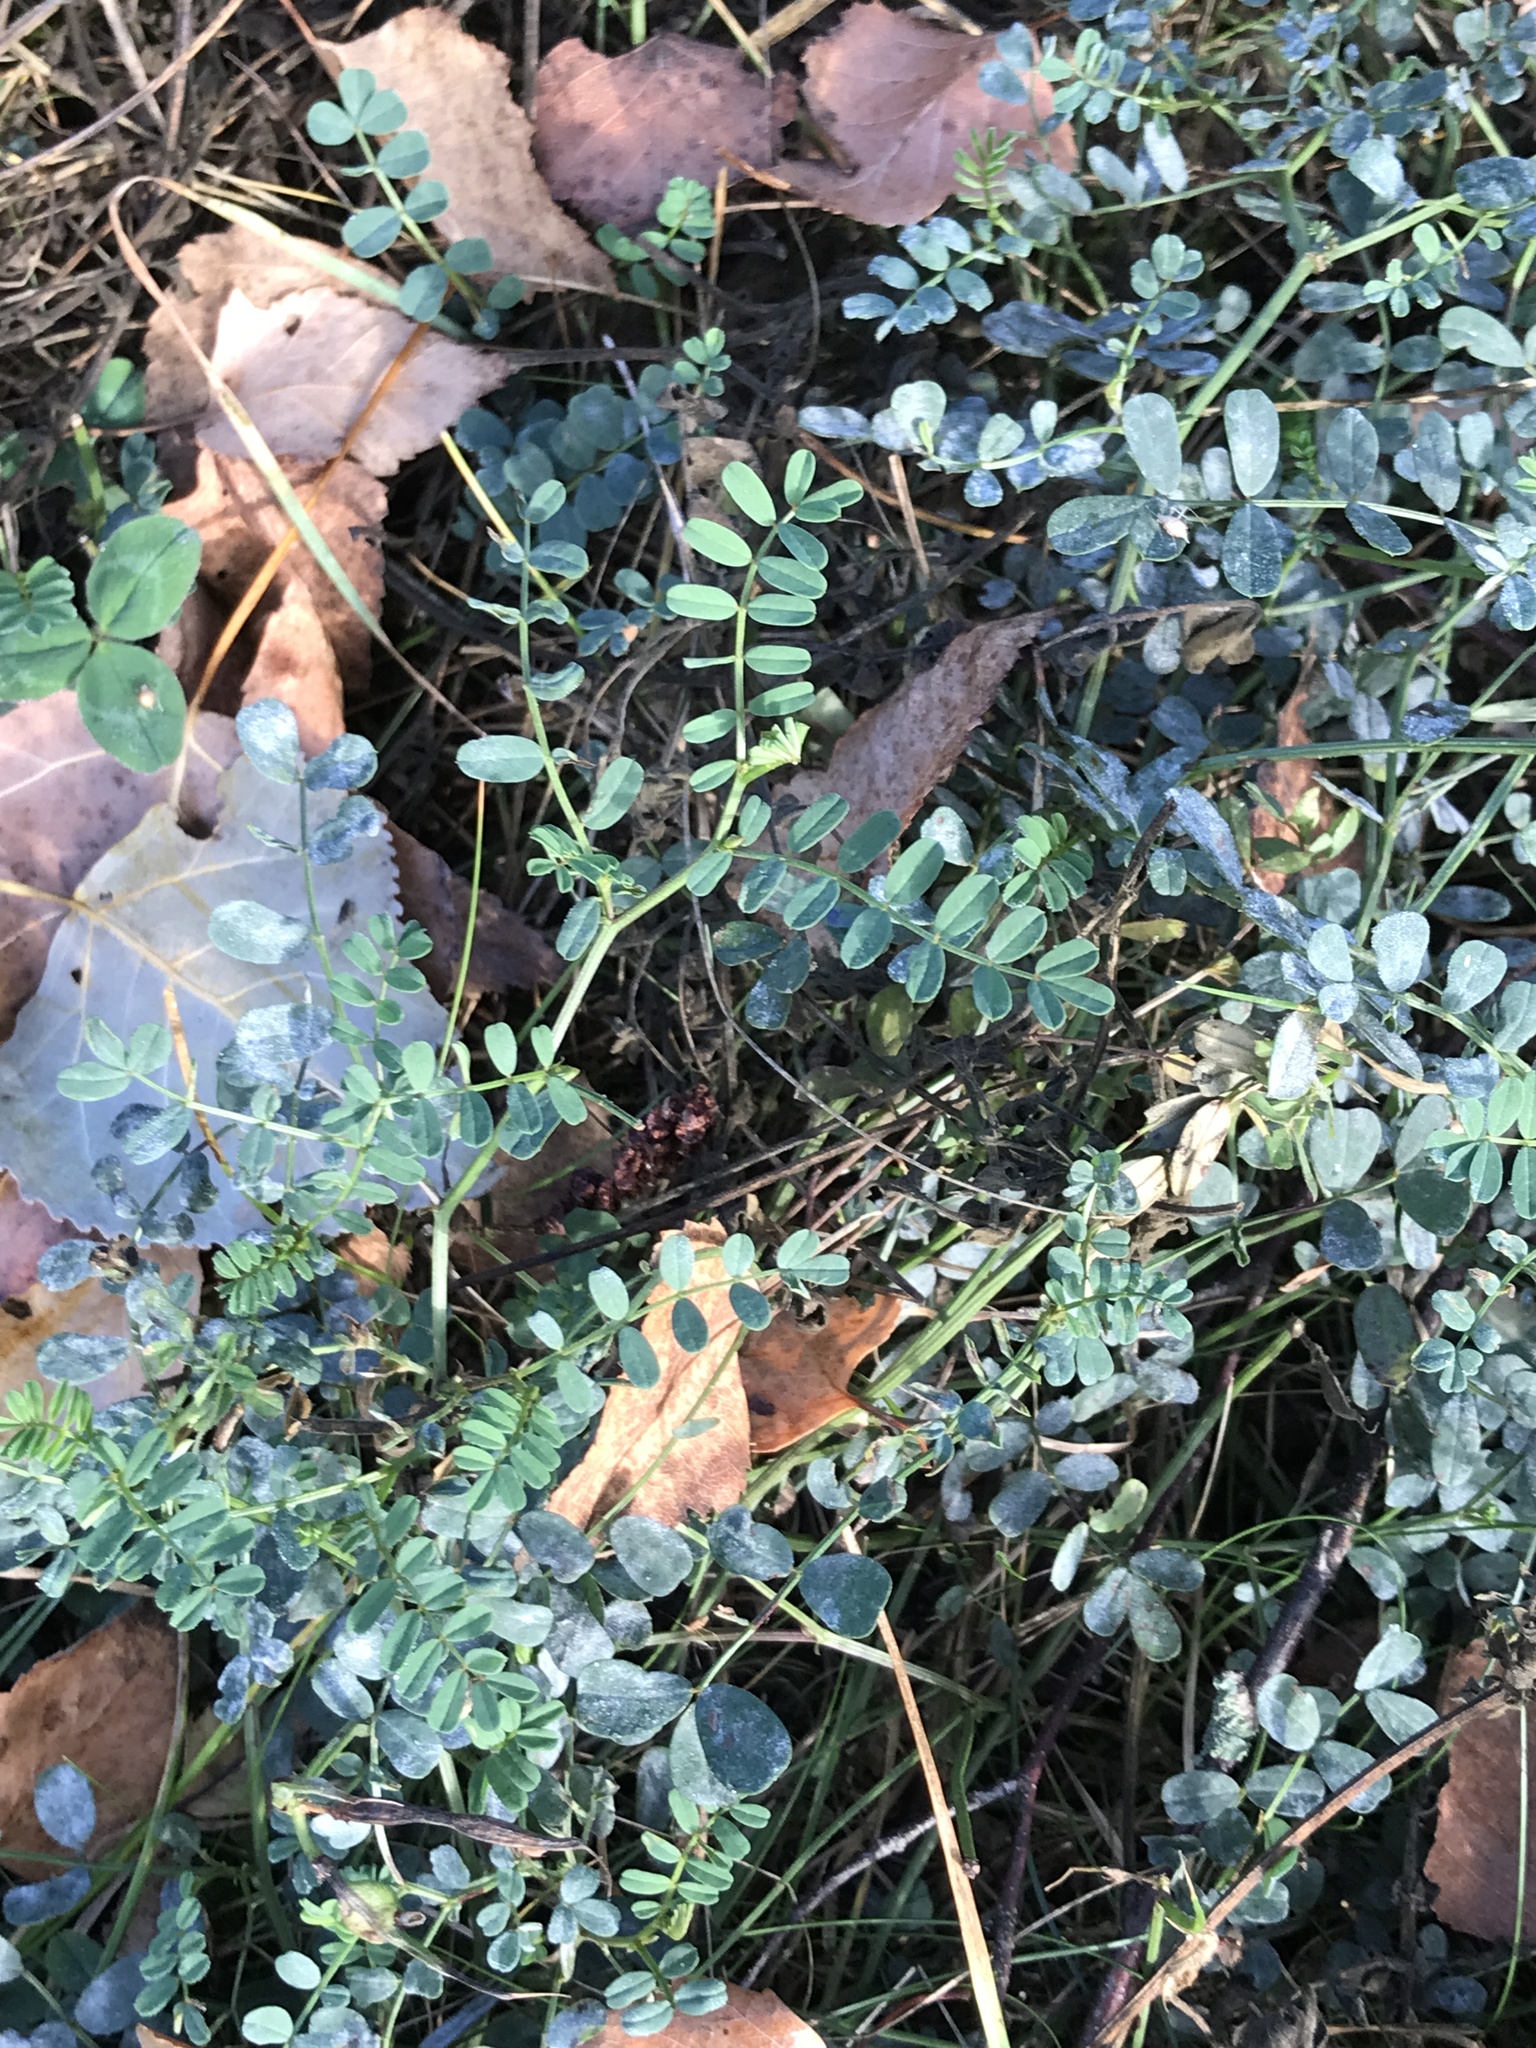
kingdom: Plantae
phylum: Tracheophyta
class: Magnoliopsida
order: Fabales
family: Fabaceae
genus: Coronilla
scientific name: Coronilla varia
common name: Crownvetch
